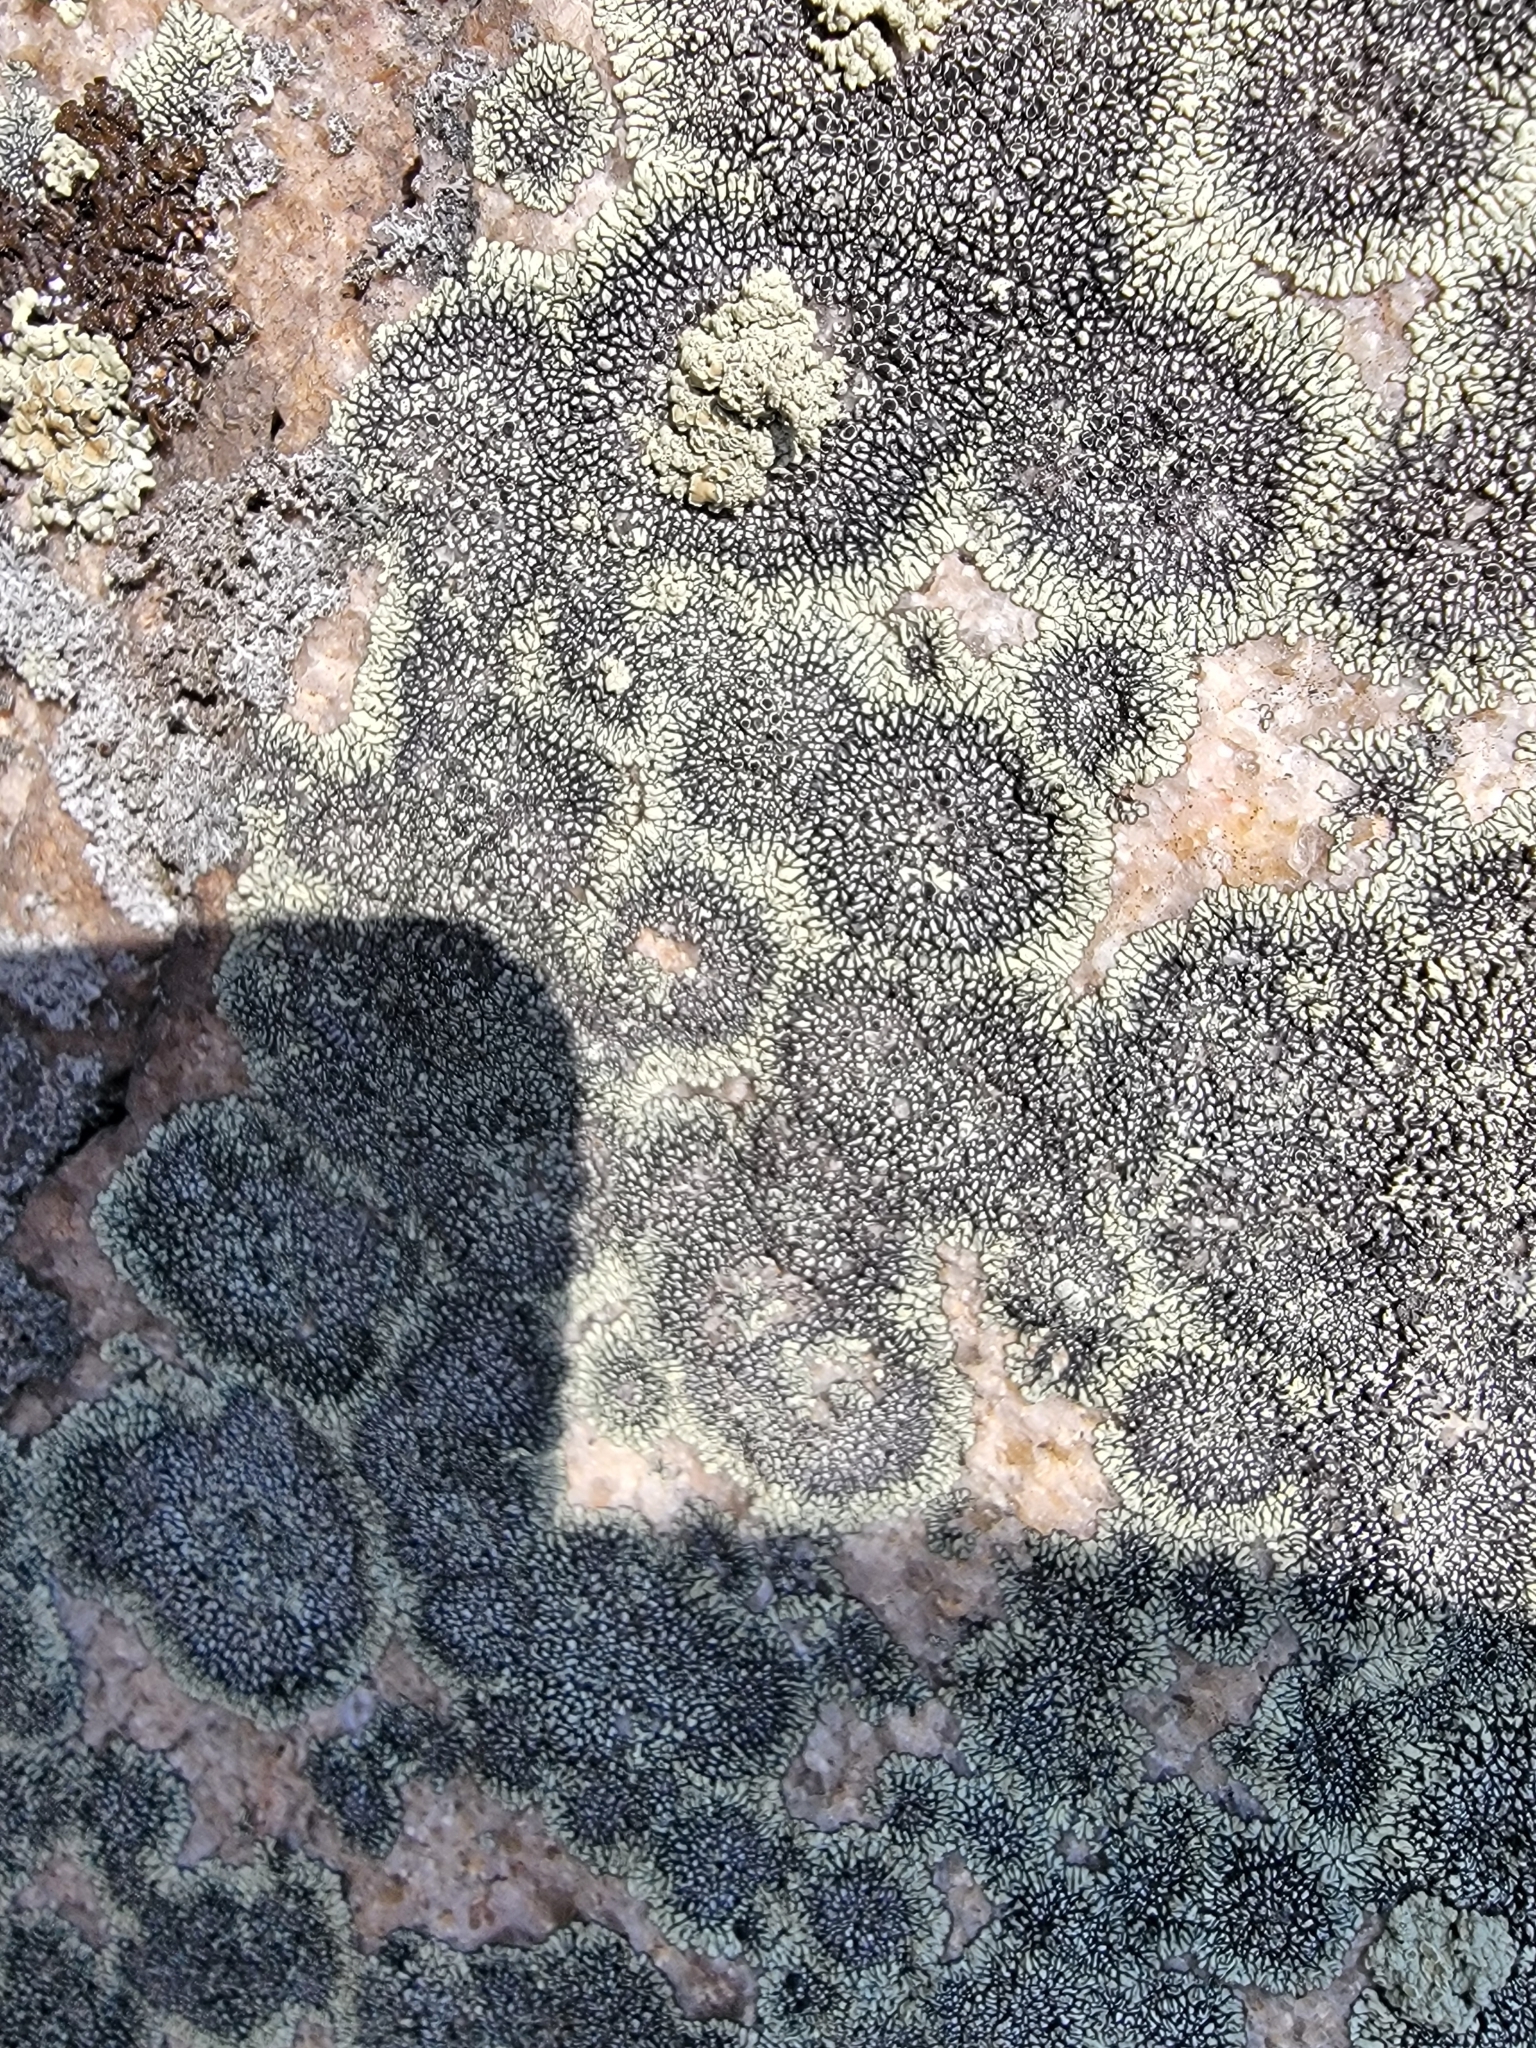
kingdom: Fungi
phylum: Ascomycota
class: Lecanoromycetes
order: Caliciales
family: Caliciaceae
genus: Dimelaena
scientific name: Dimelaena oreina
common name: Golden moonglow lichen
